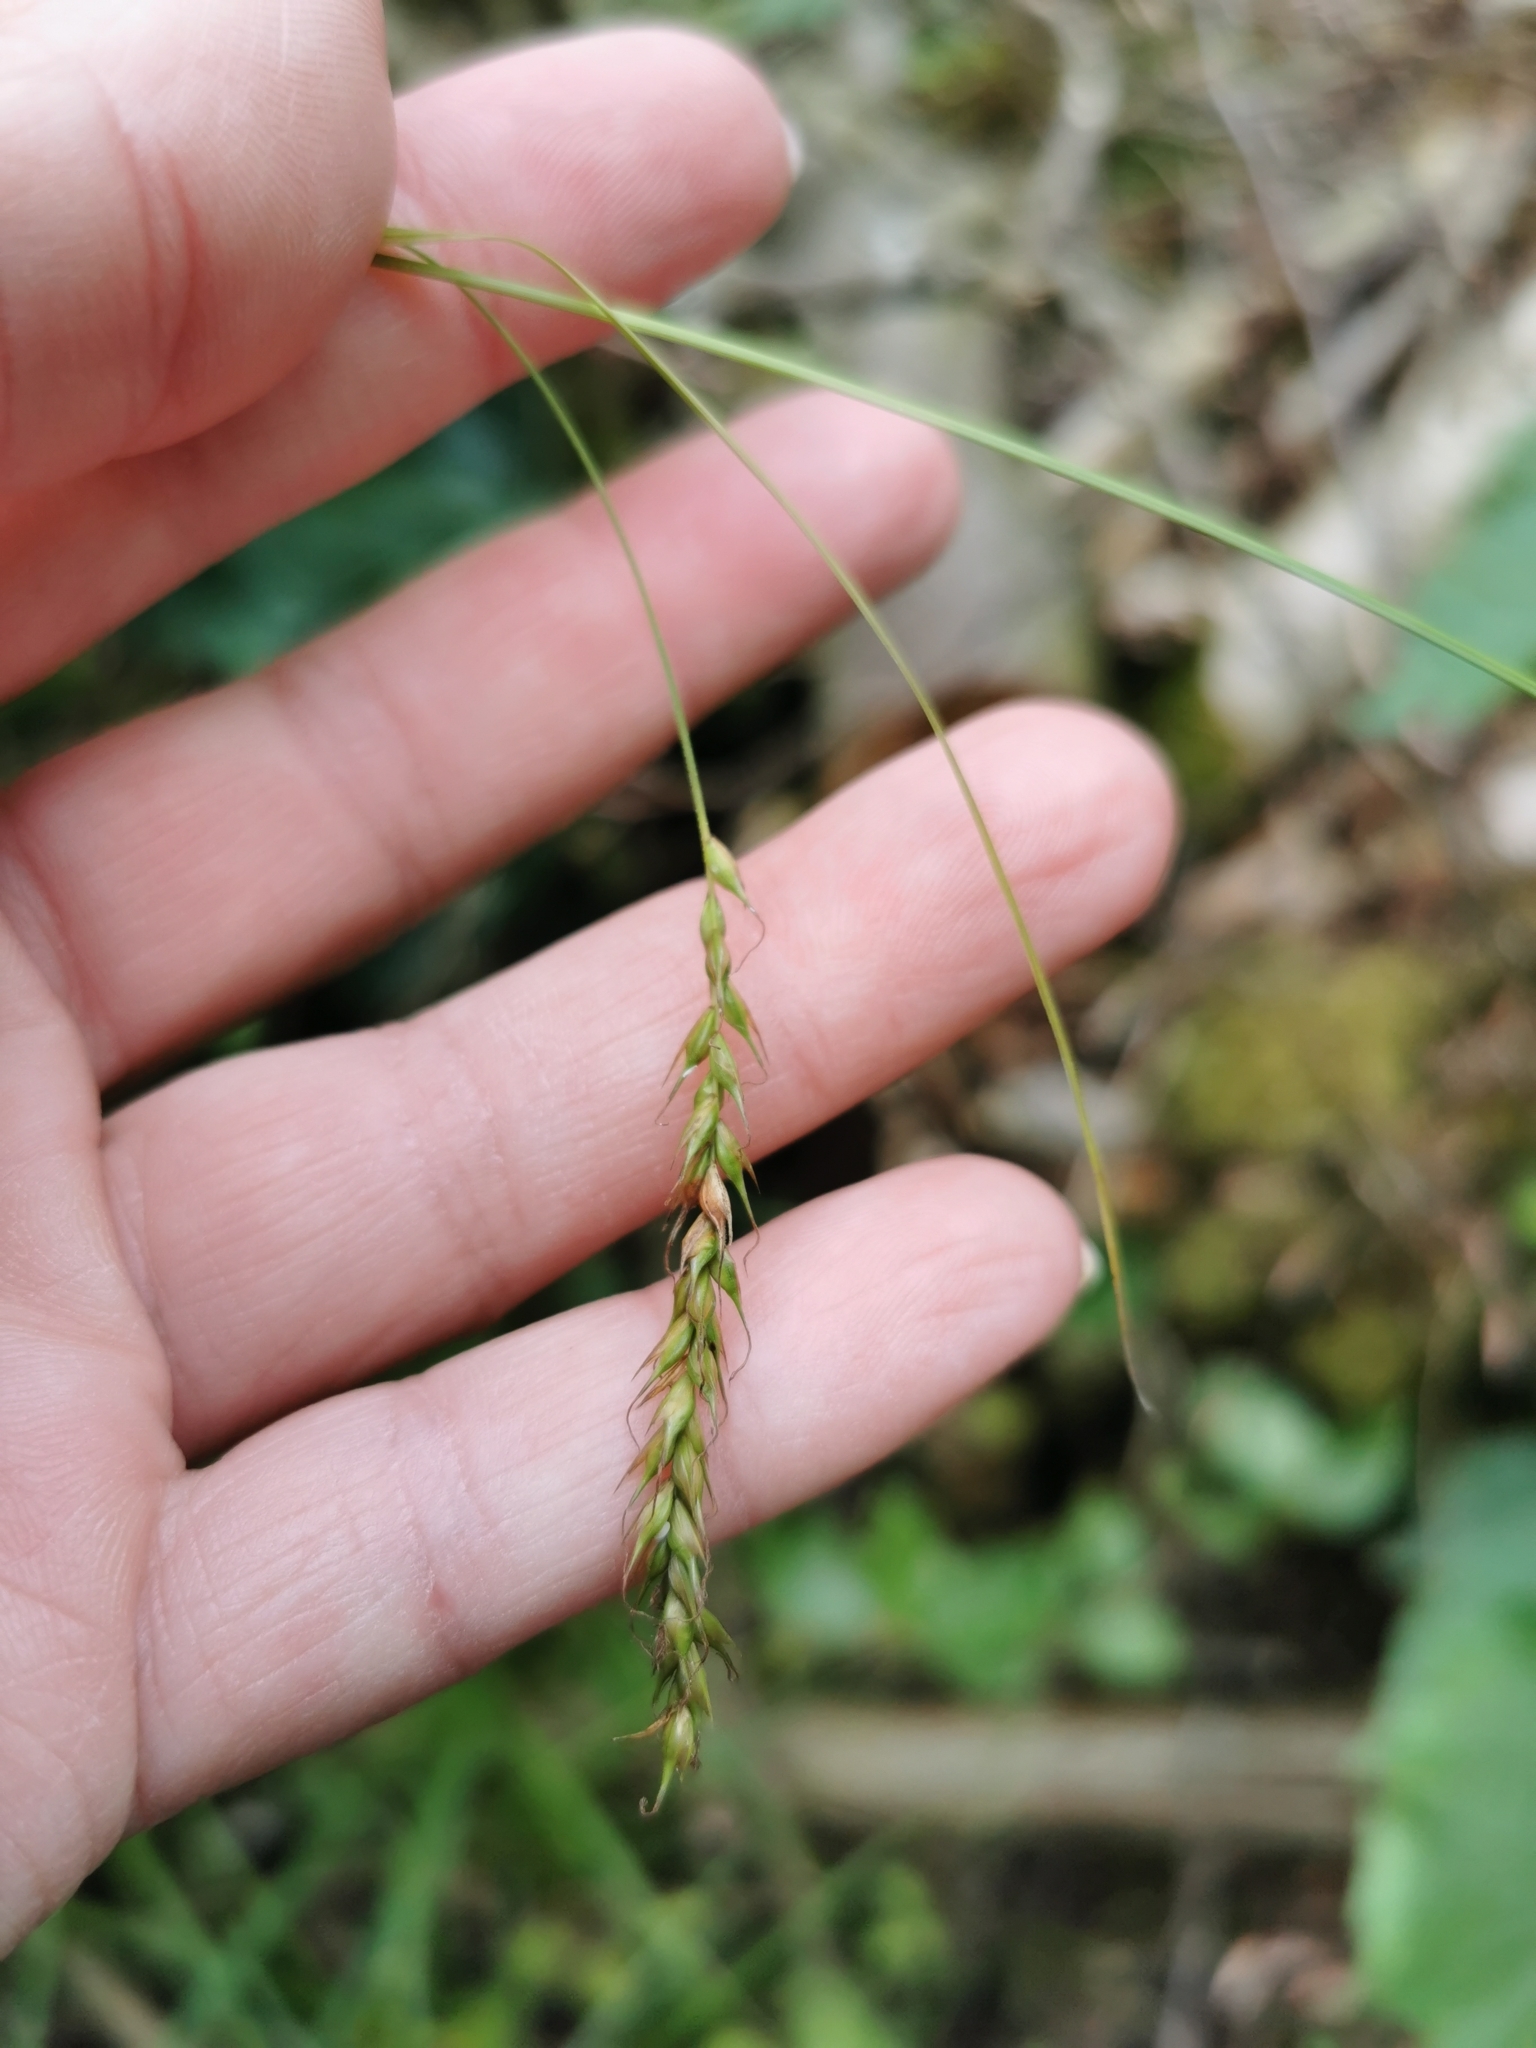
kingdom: Plantae
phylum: Tracheophyta
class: Liliopsida
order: Poales
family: Cyperaceae
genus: Carex
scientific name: Carex sylvatica
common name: Wood-sedge
